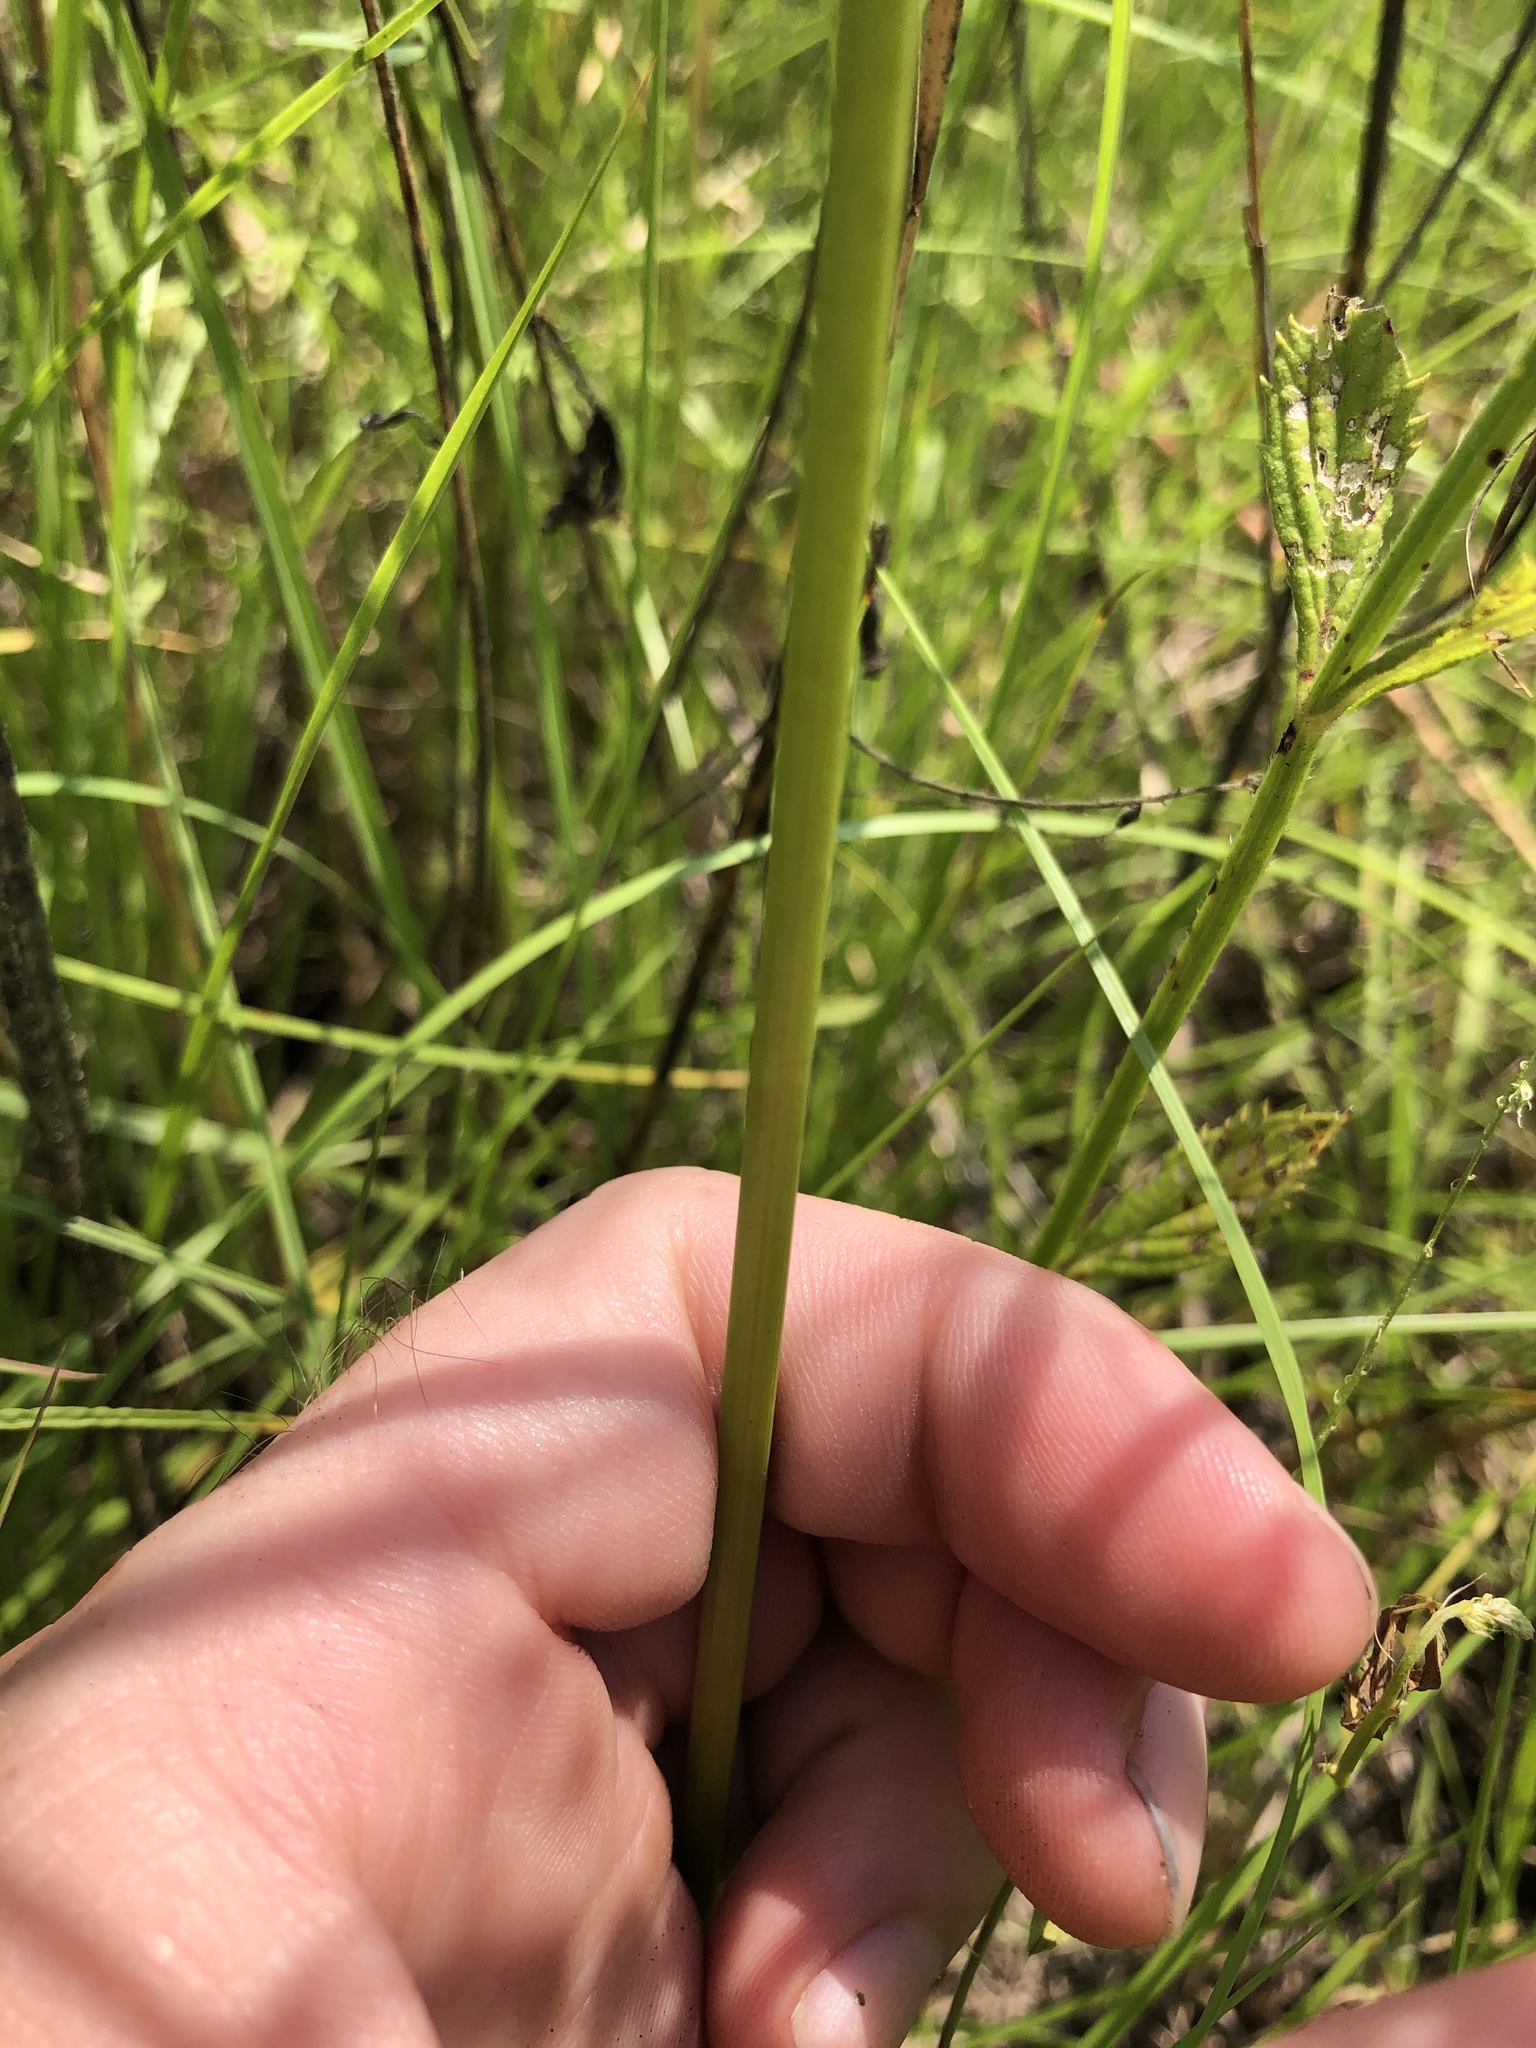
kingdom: Plantae
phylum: Tracheophyta
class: Liliopsida
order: Poales
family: Cyperaceae
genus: Cyperus
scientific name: Cyperus echinatus
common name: Teasel sedge
